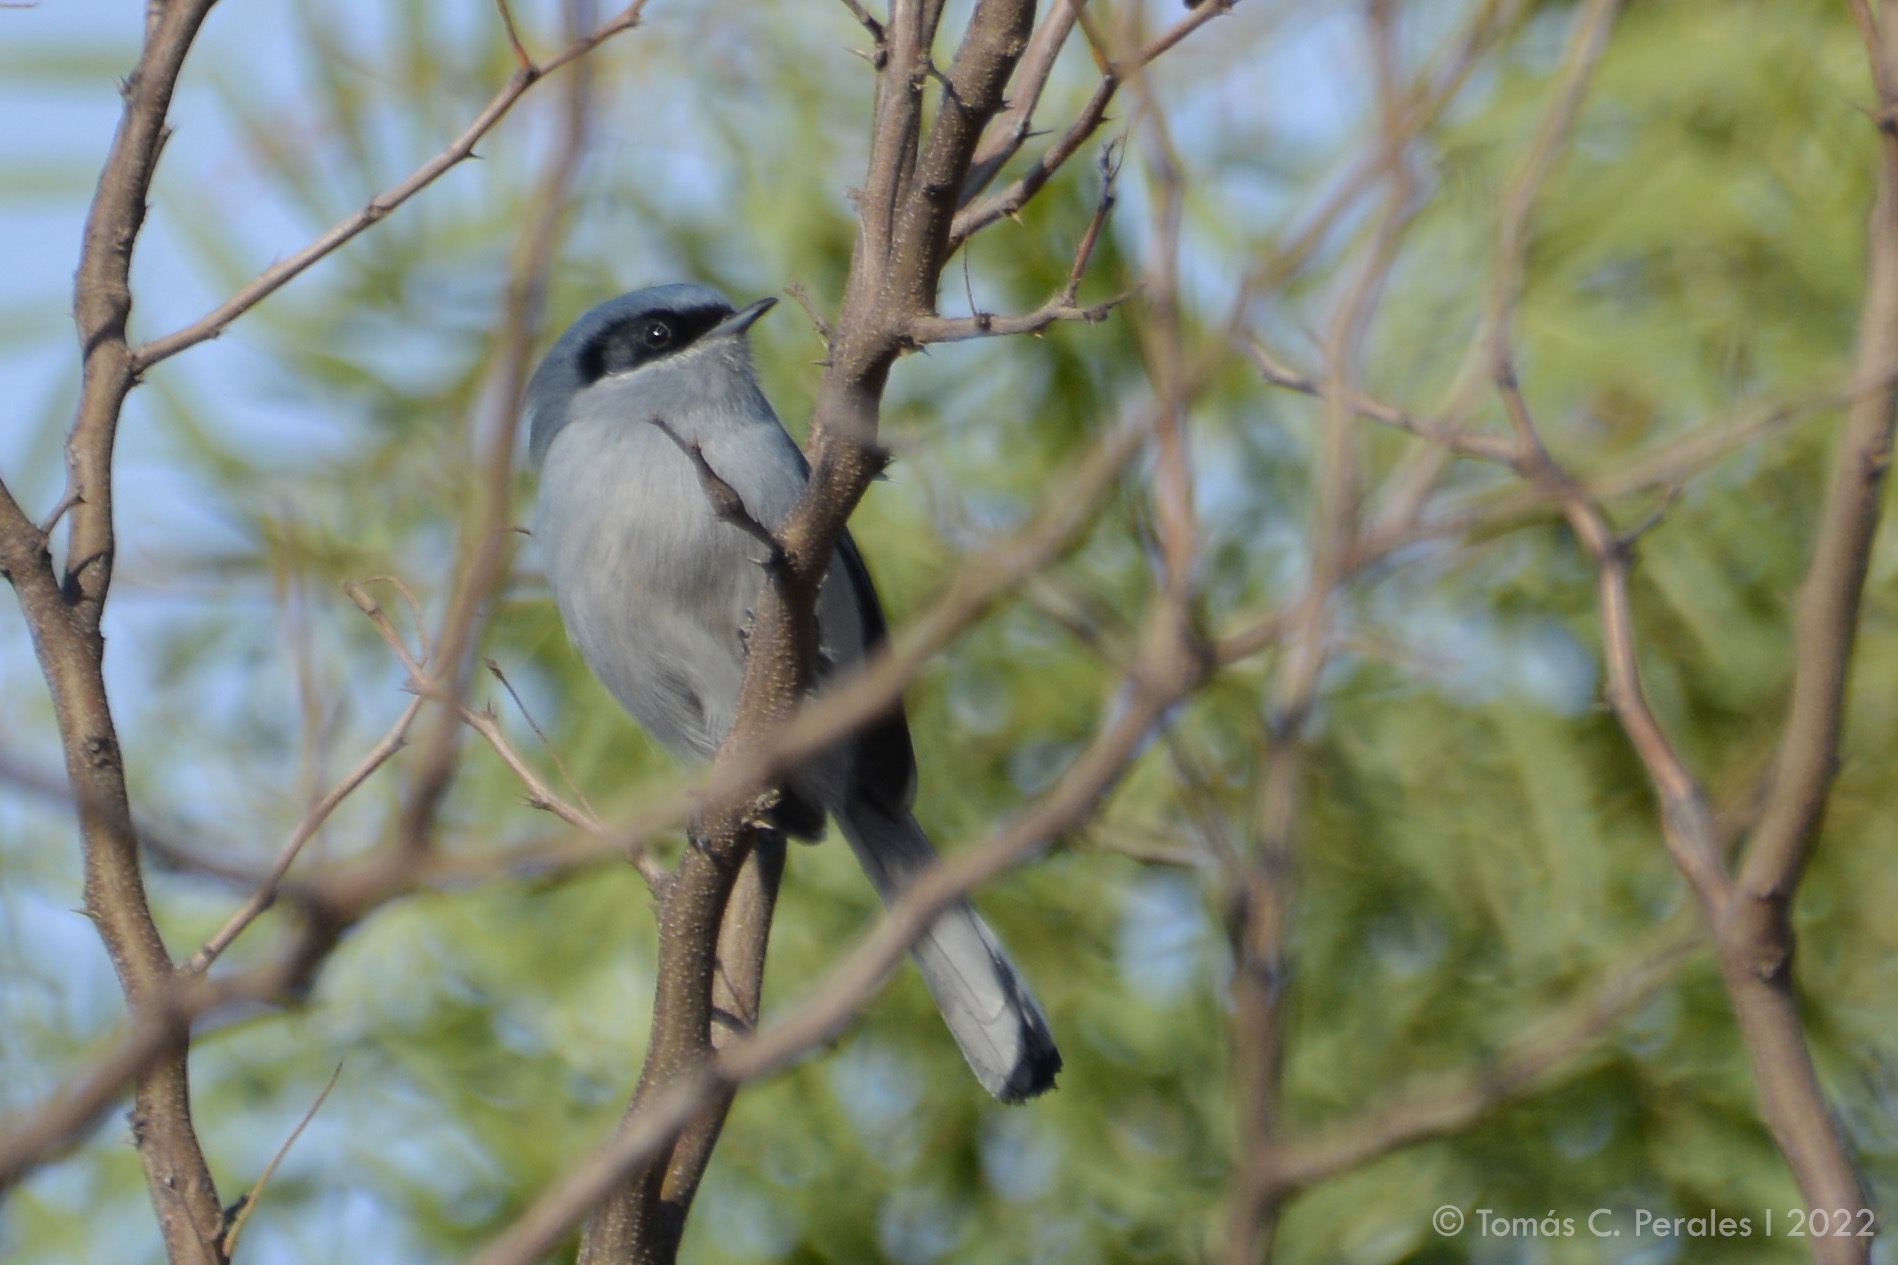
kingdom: Animalia
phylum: Chordata
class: Aves
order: Passeriformes
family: Polioptilidae
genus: Polioptila
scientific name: Polioptila dumicola
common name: Masked gnatcatcher
